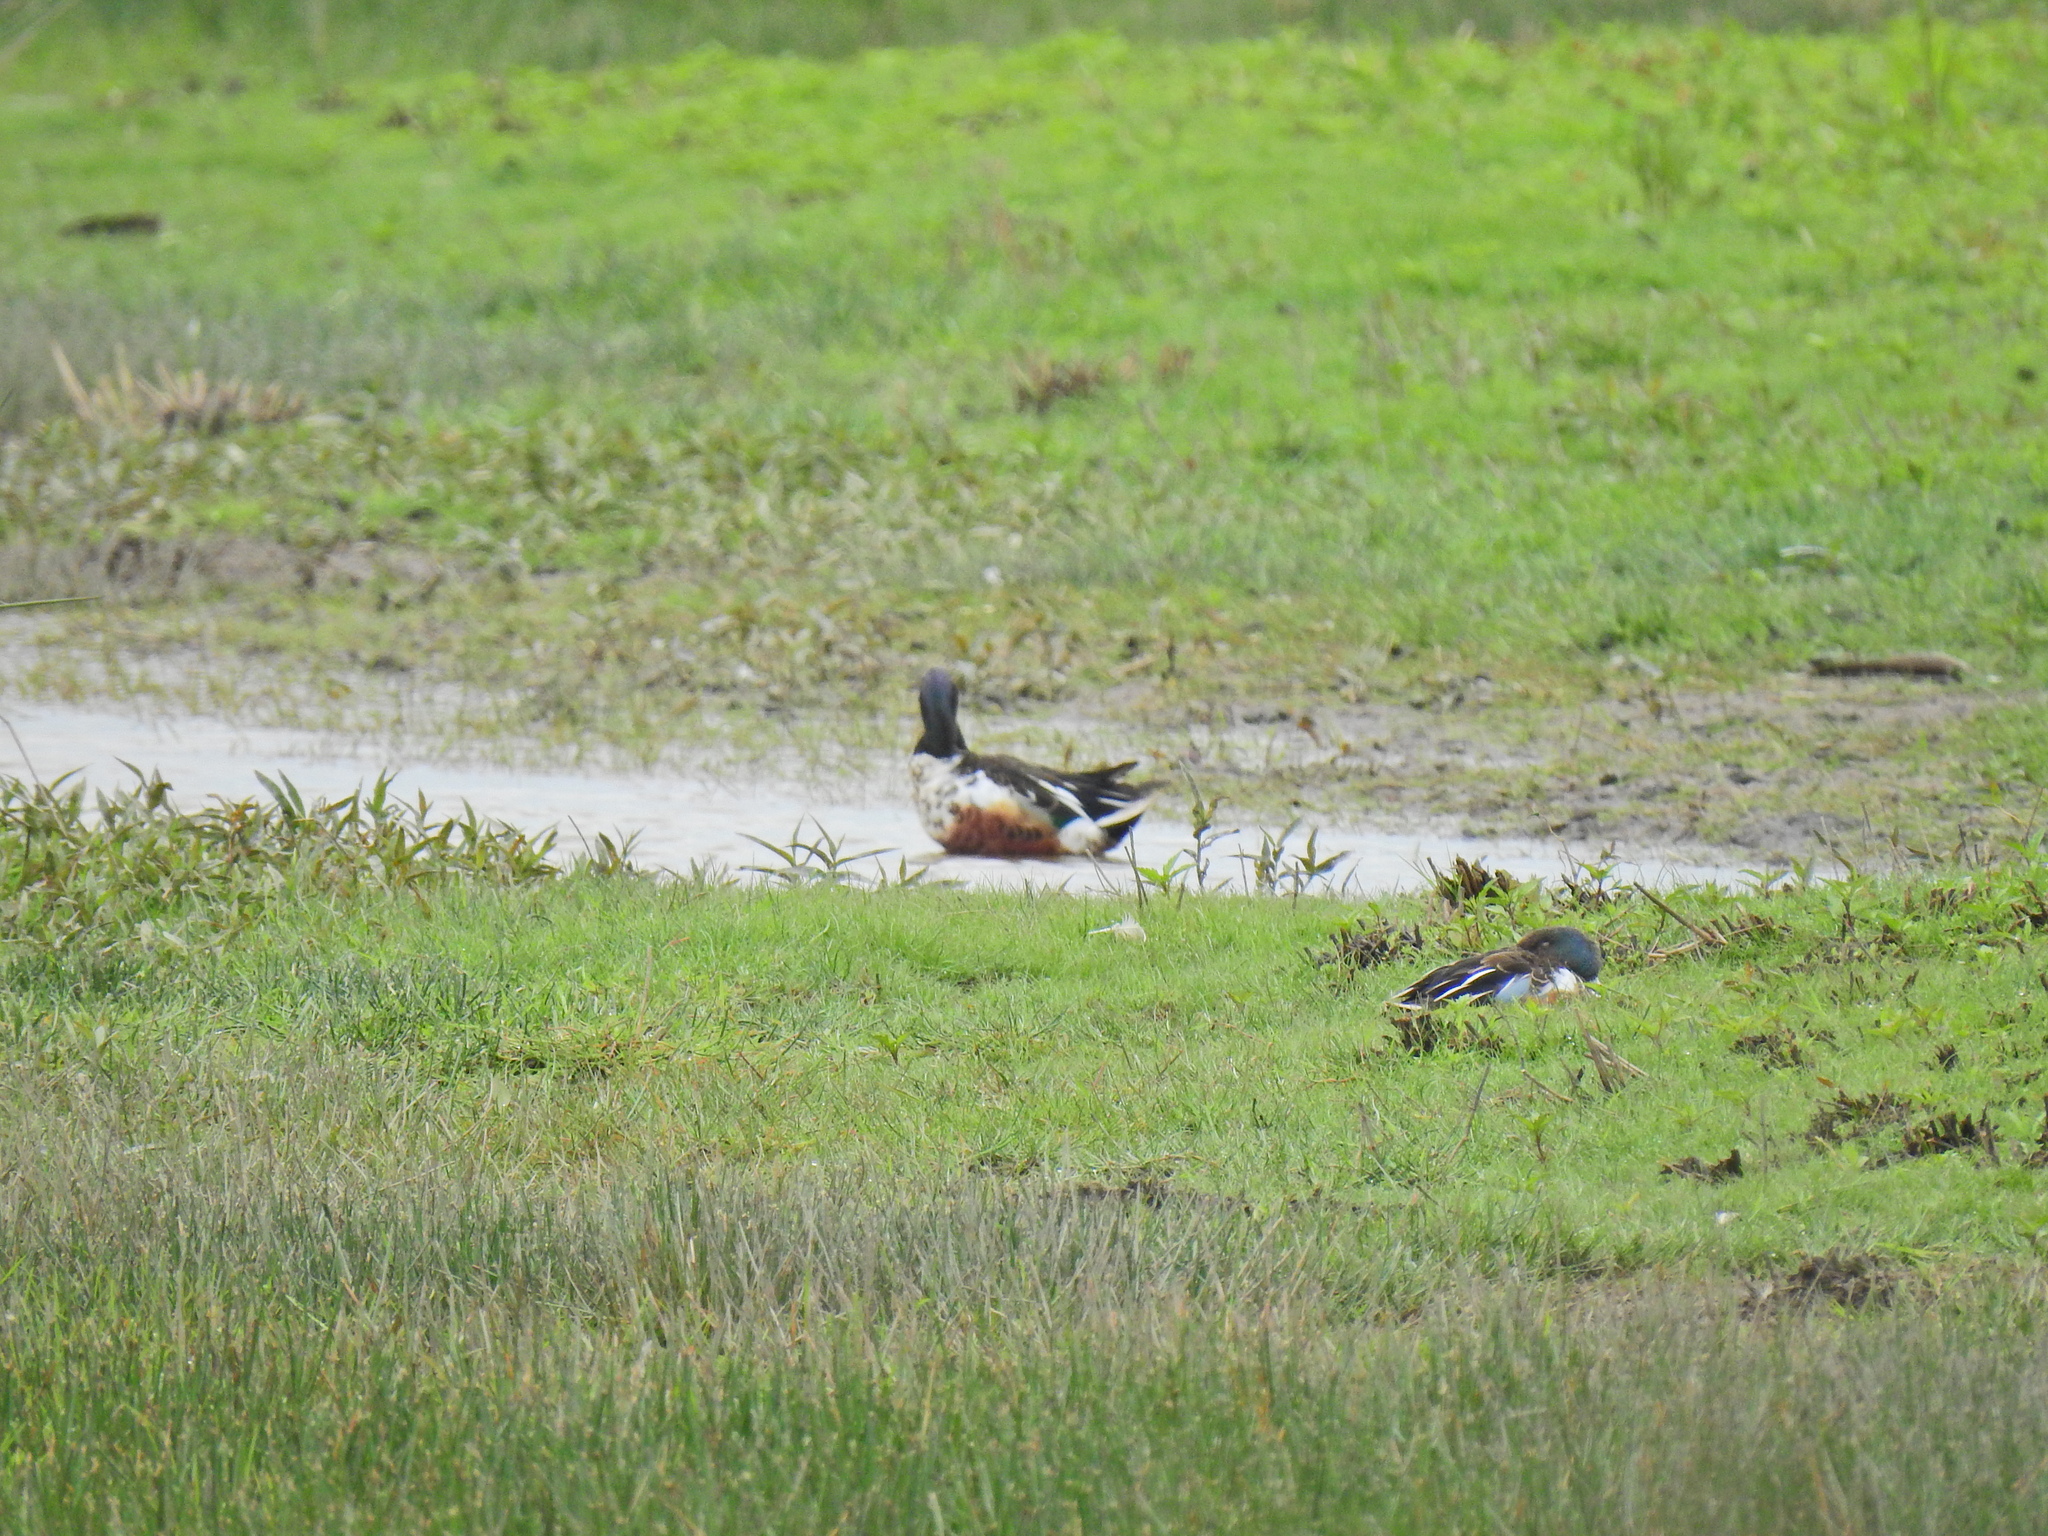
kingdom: Animalia
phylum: Chordata
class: Aves
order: Anseriformes
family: Anatidae
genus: Spatula
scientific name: Spatula clypeata
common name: Northern shoveler
